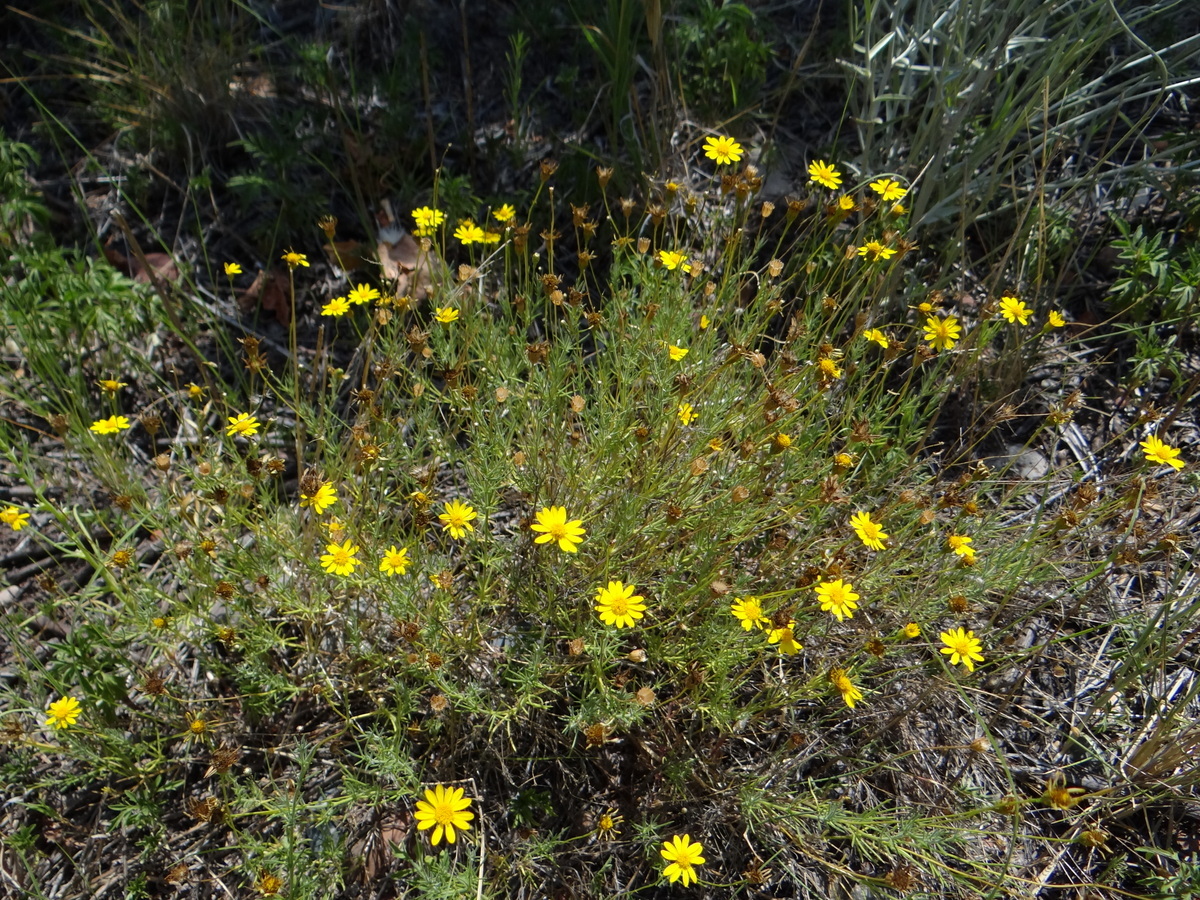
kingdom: Plantae
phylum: Tracheophyta
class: Magnoliopsida
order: Asterales
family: Asteraceae
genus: Thymophylla
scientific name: Thymophylla pentachaeta
